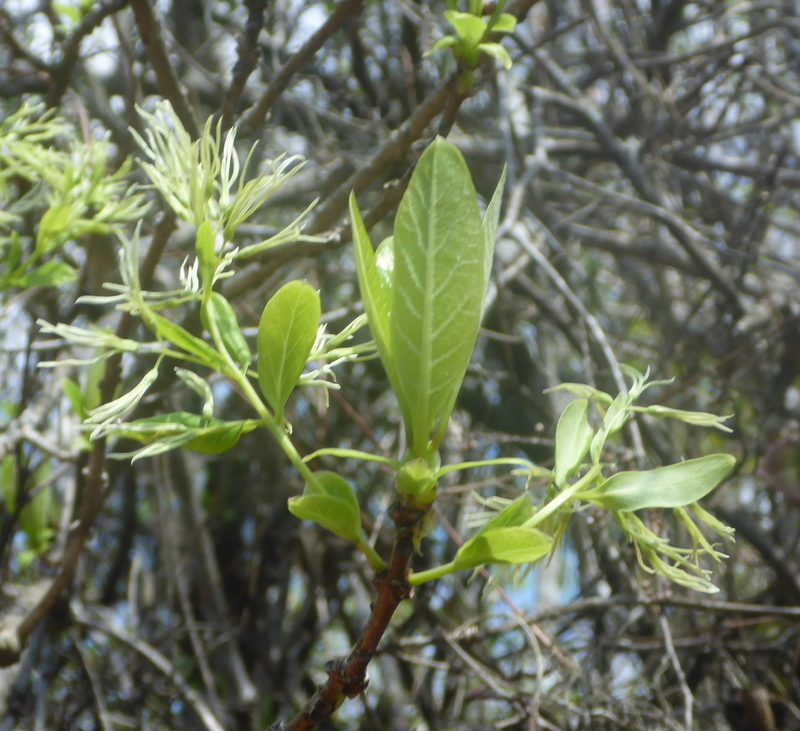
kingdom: Plantae
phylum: Tracheophyta
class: Magnoliopsida
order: Lamiales
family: Oleaceae
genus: Chionanthus
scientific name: Chionanthus virginicus
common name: American fringetree
